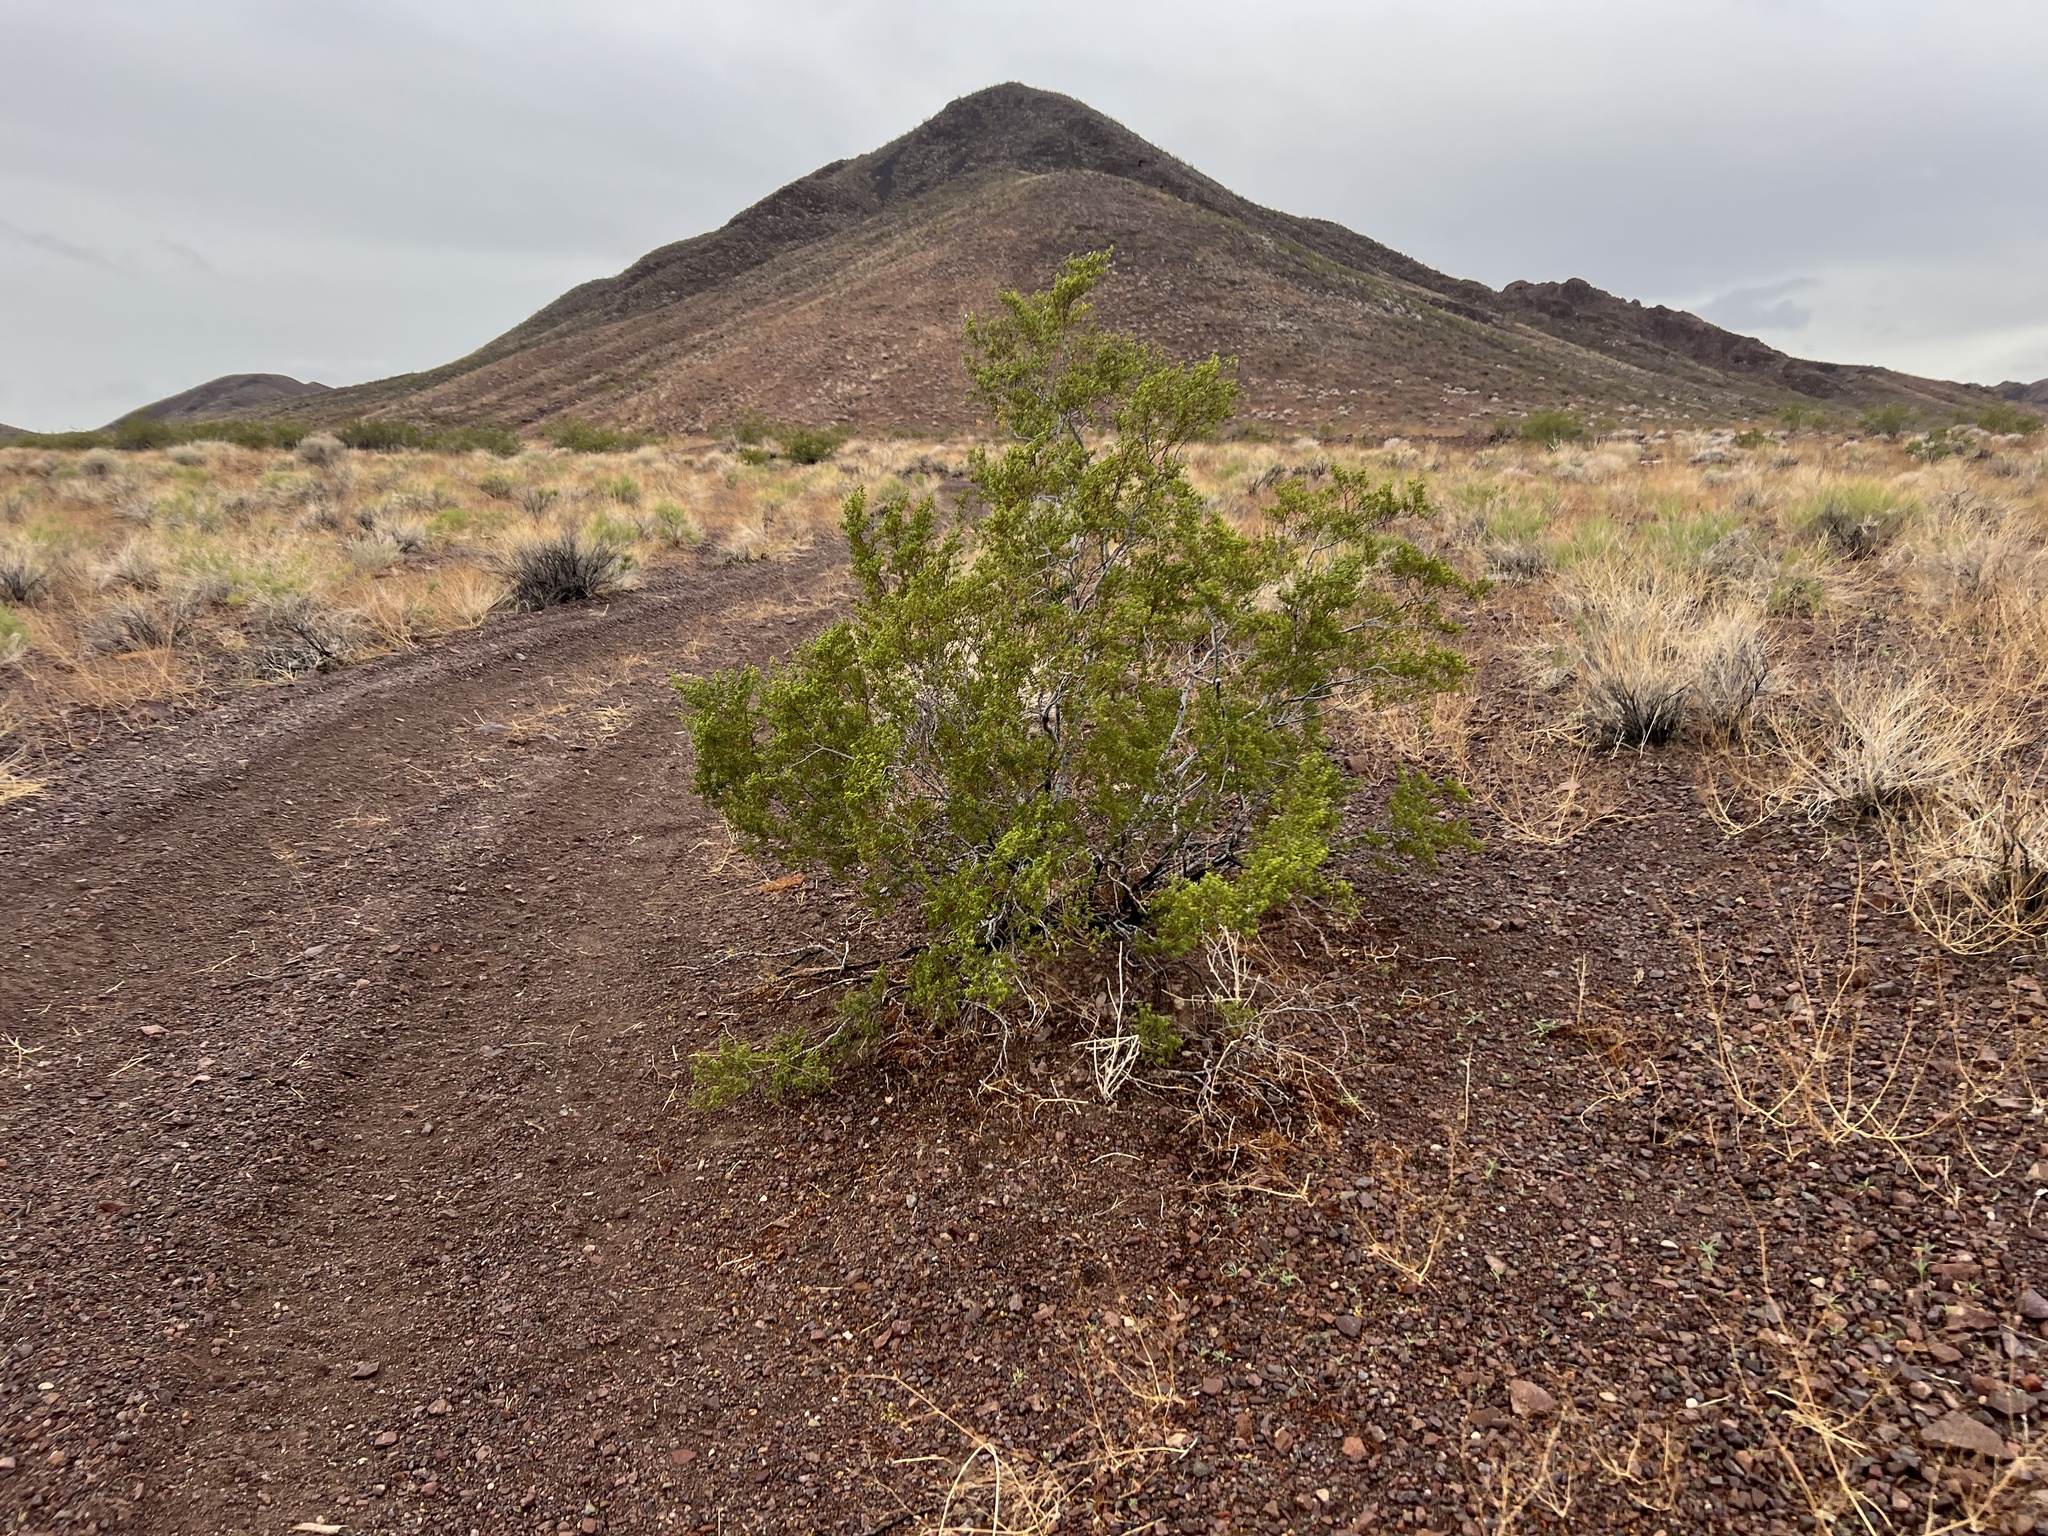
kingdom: Plantae
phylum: Tracheophyta
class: Magnoliopsida
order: Zygophyllales
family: Zygophyllaceae
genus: Larrea
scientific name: Larrea tridentata
